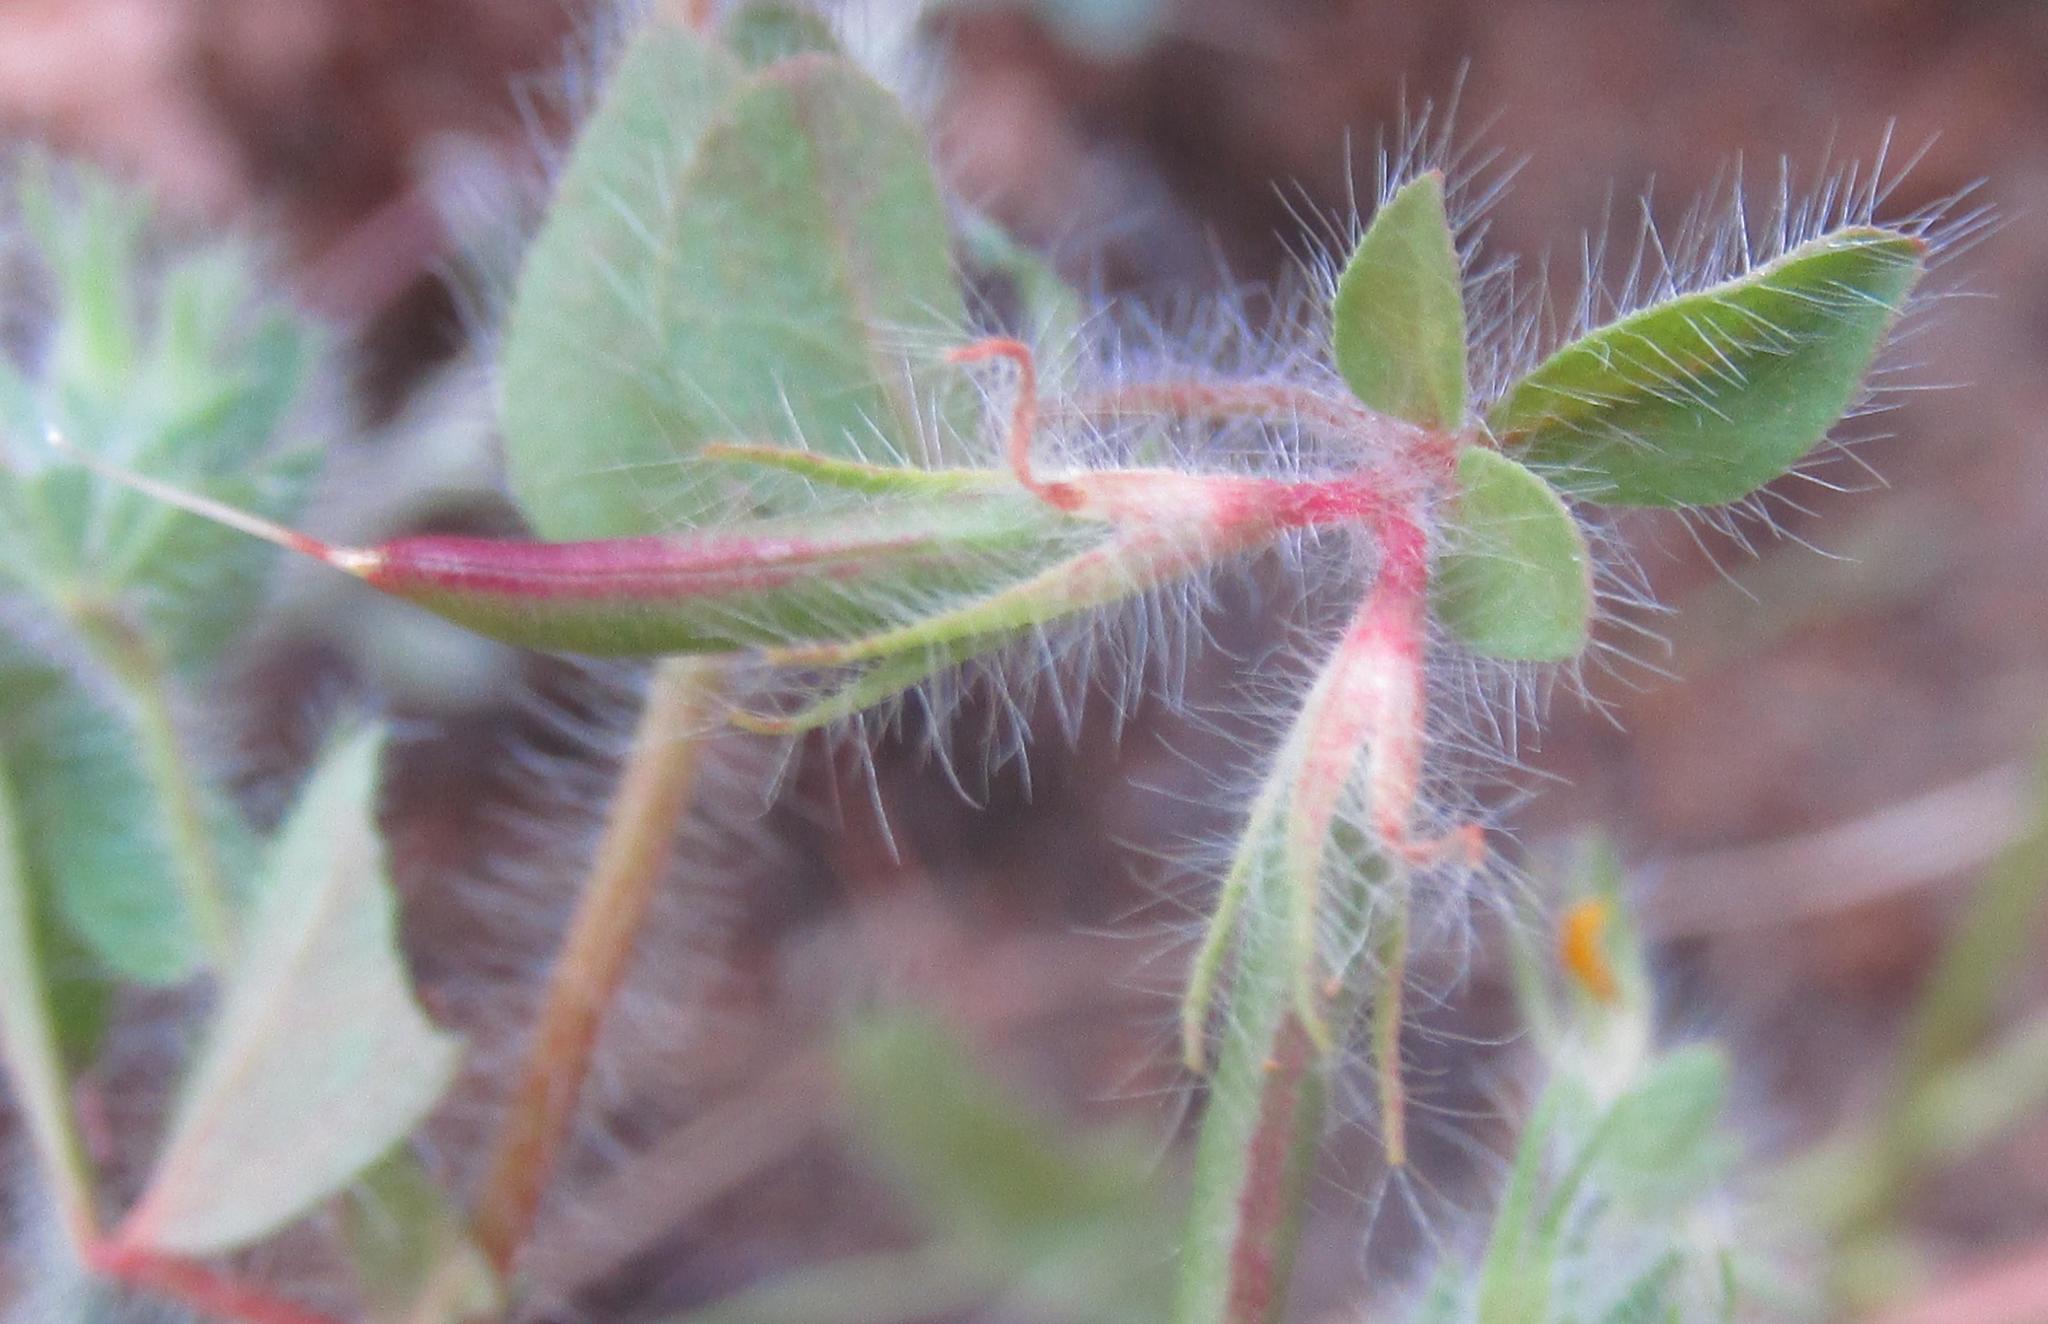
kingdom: Plantae
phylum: Tracheophyta
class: Magnoliopsida
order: Fabales
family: Fabaceae
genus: Lotus
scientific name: Lotus subbiflorus
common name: Hairy bird's-foot trefoil
